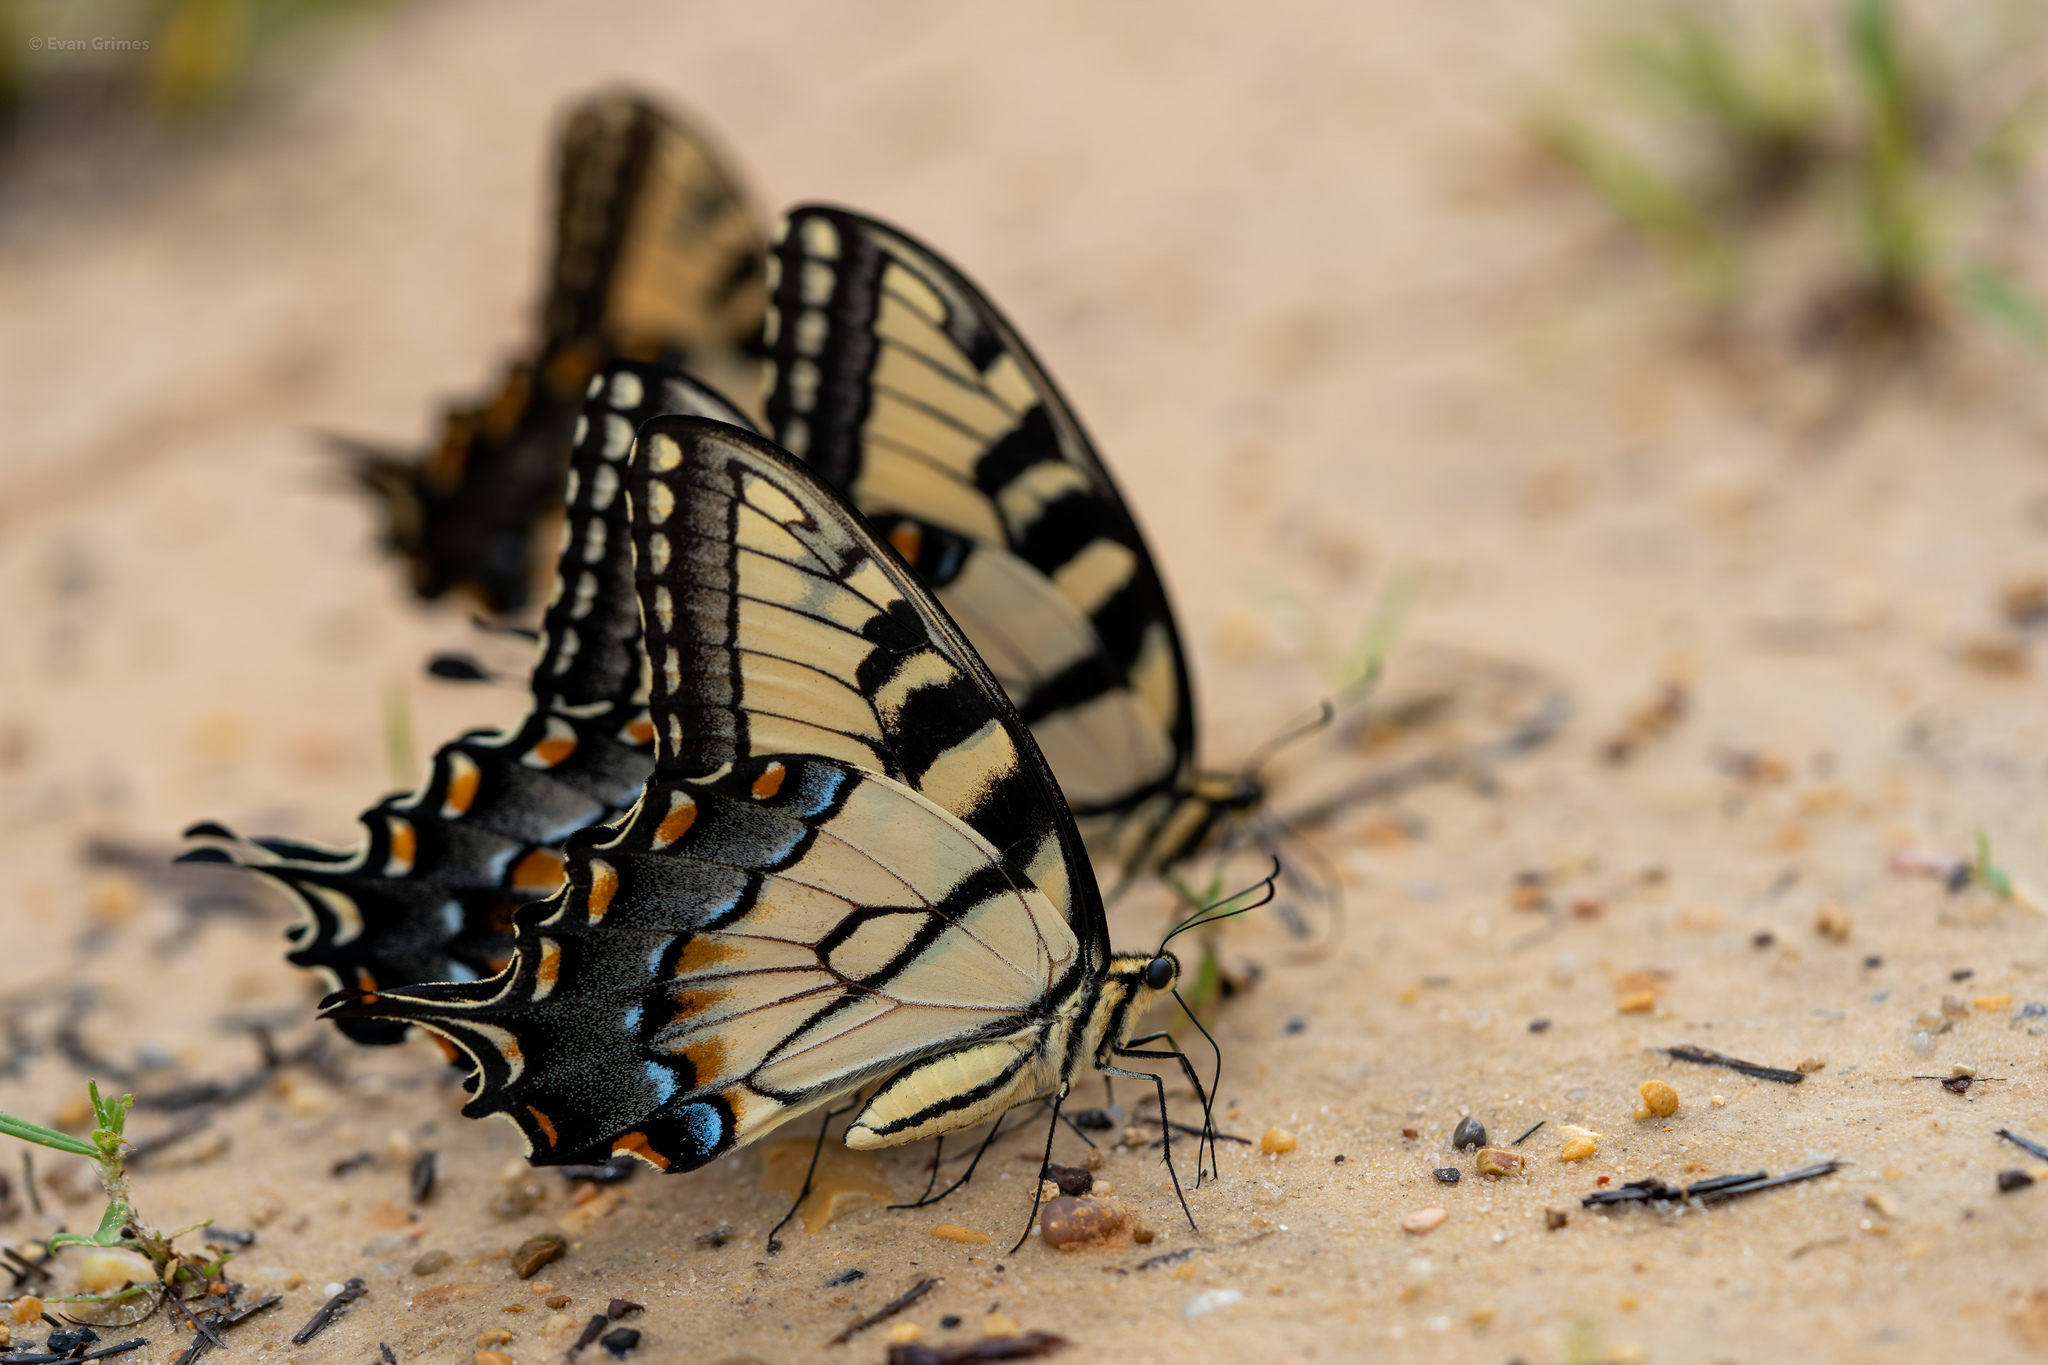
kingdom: Animalia
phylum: Arthropoda
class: Insecta
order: Lepidoptera
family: Papilionidae
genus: Papilio
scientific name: Papilio glaucus
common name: Tiger swallowtail
